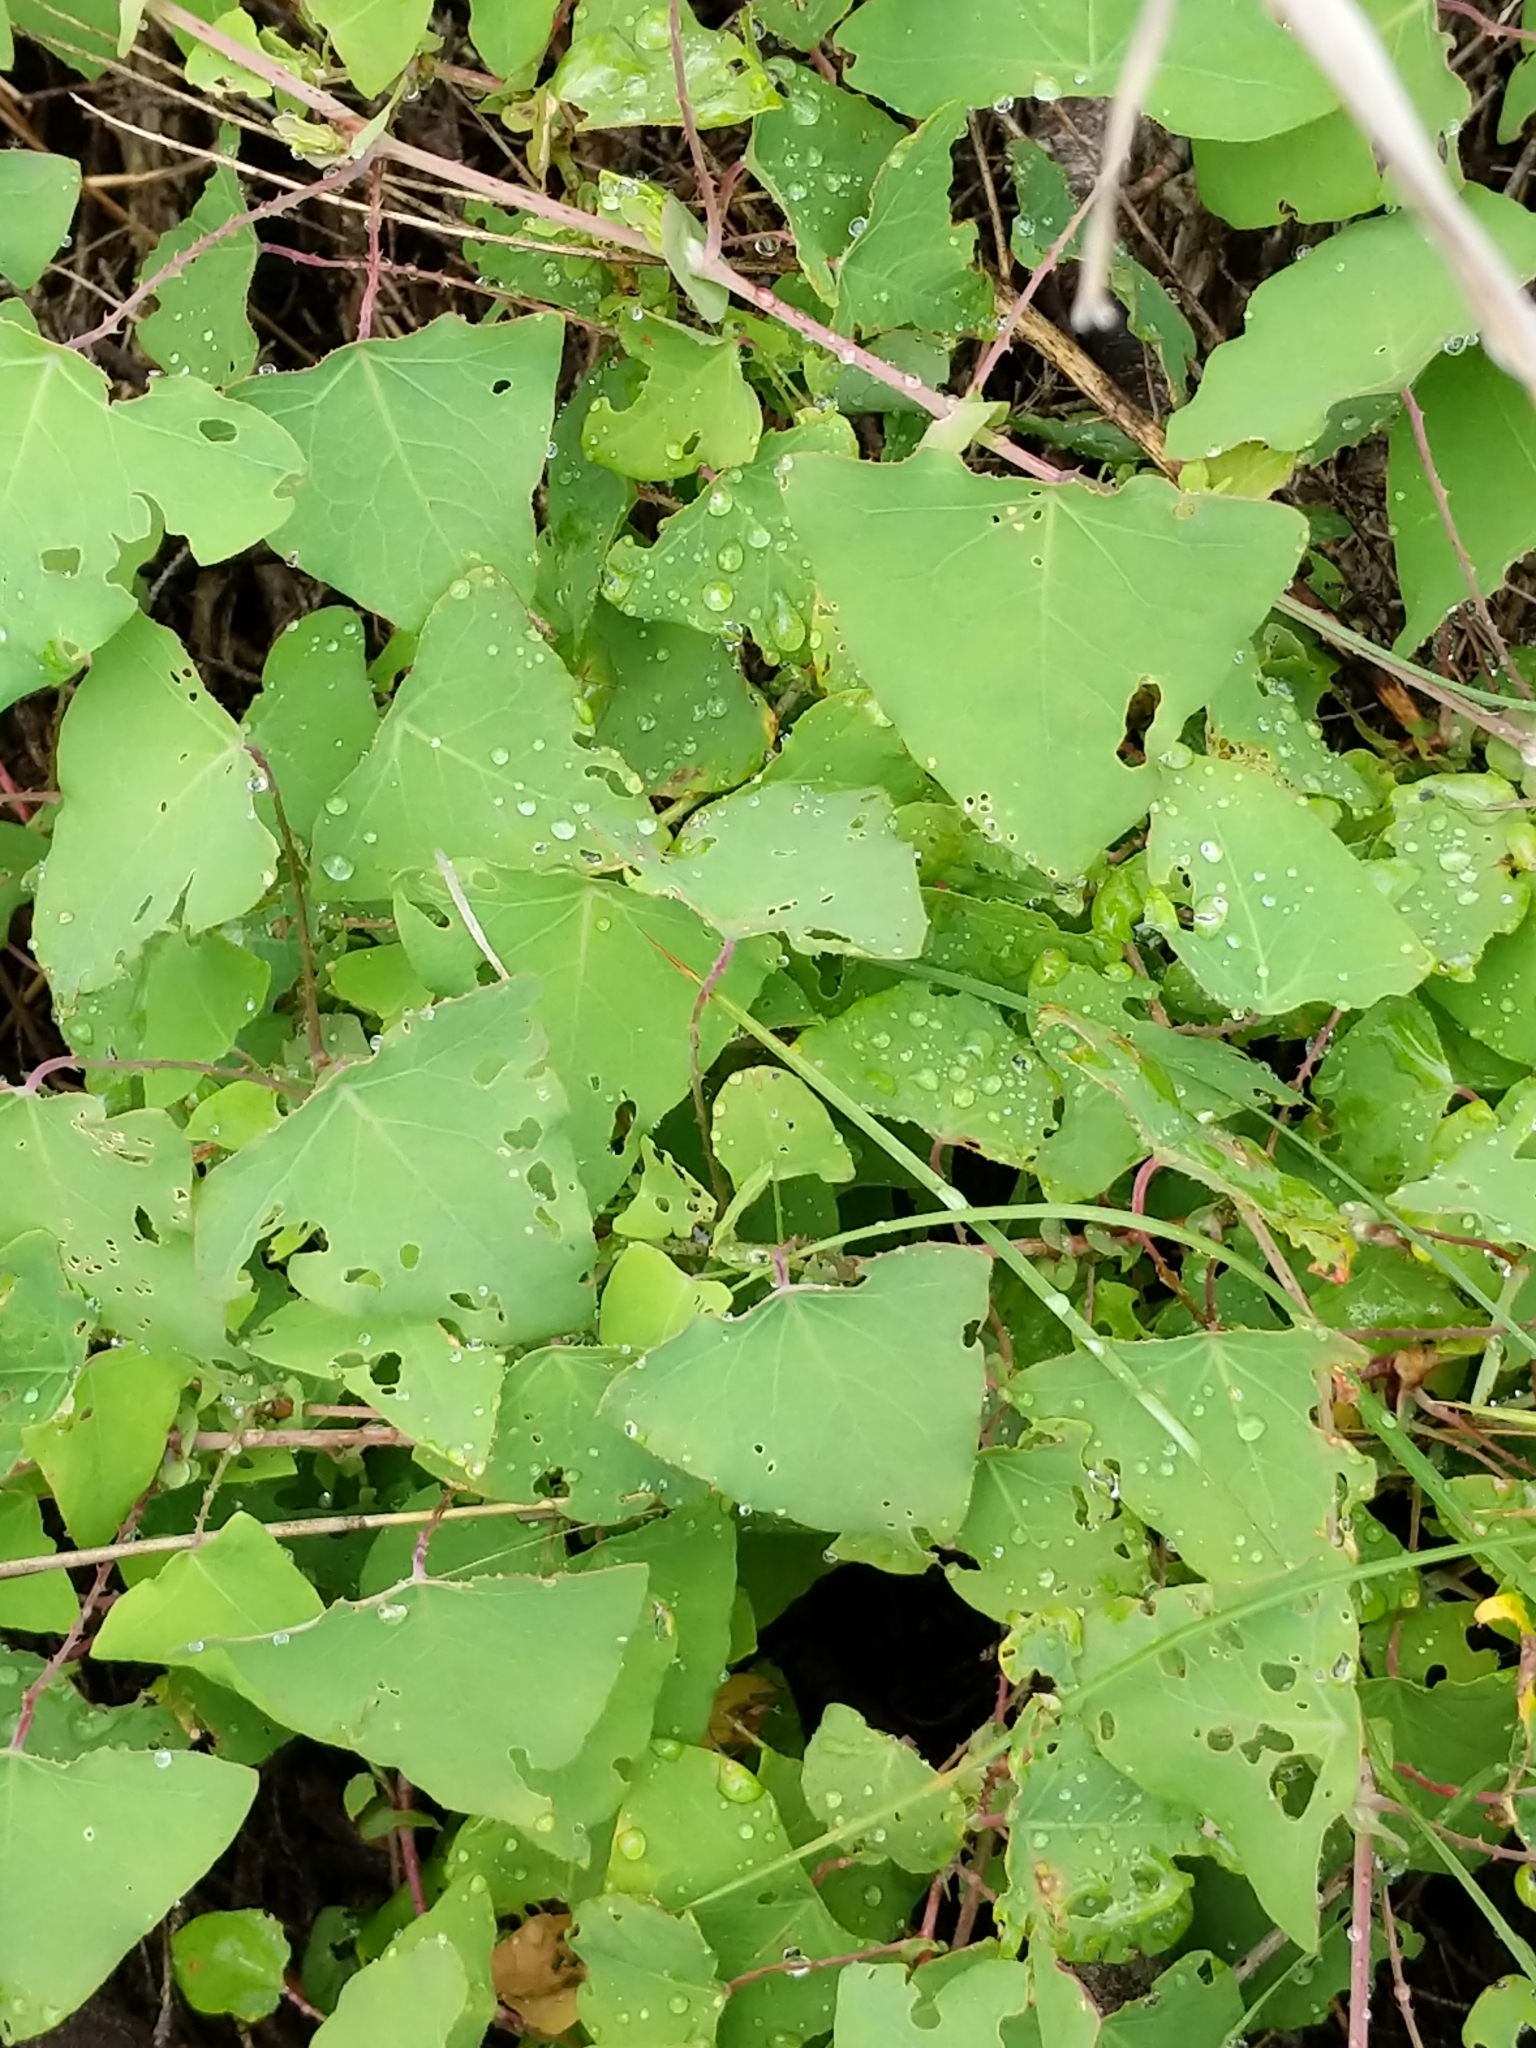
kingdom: Plantae
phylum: Tracheophyta
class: Magnoliopsida
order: Caryophyllales
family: Polygonaceae
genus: Persicaria
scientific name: Persicaria perfoliata
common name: Asiatic tearthumb
